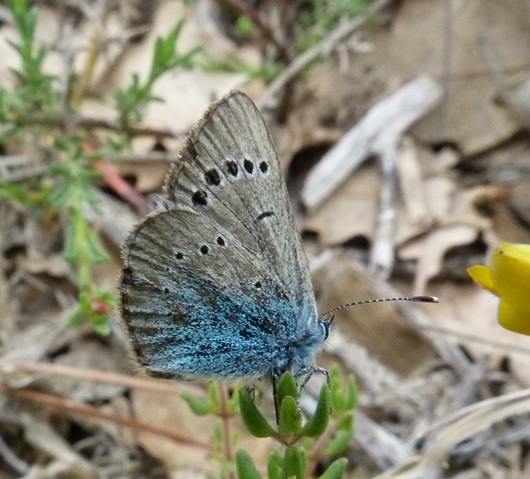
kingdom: Animalia
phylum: Arthropoda
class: Insecta
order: Lepidoptera
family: Lycaenidae
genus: Glaucopsyche
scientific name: Glaucopsyche alexis
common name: Green-underside blue
